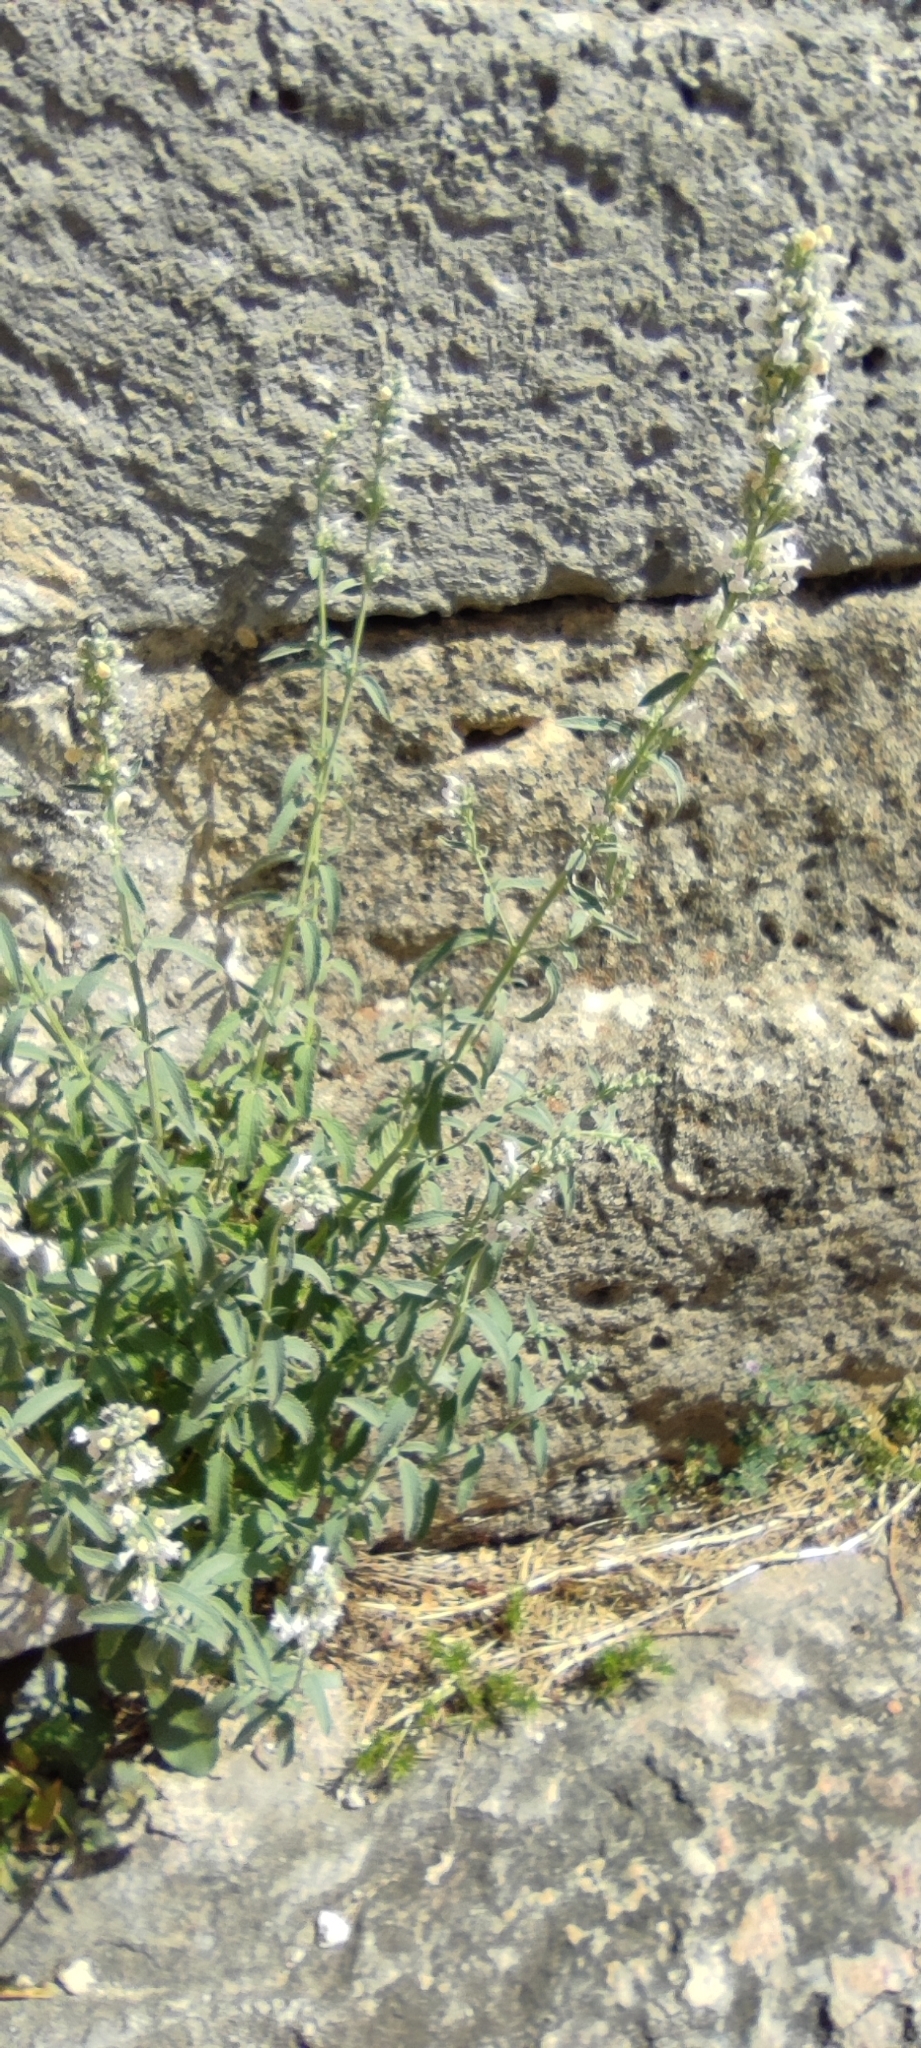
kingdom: Plantae
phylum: Tracheophyta
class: Magnoliopsida
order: Lamiales
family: Lamiaceae
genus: Nepeta
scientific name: Nepeta nepetella
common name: Lesser catmint
